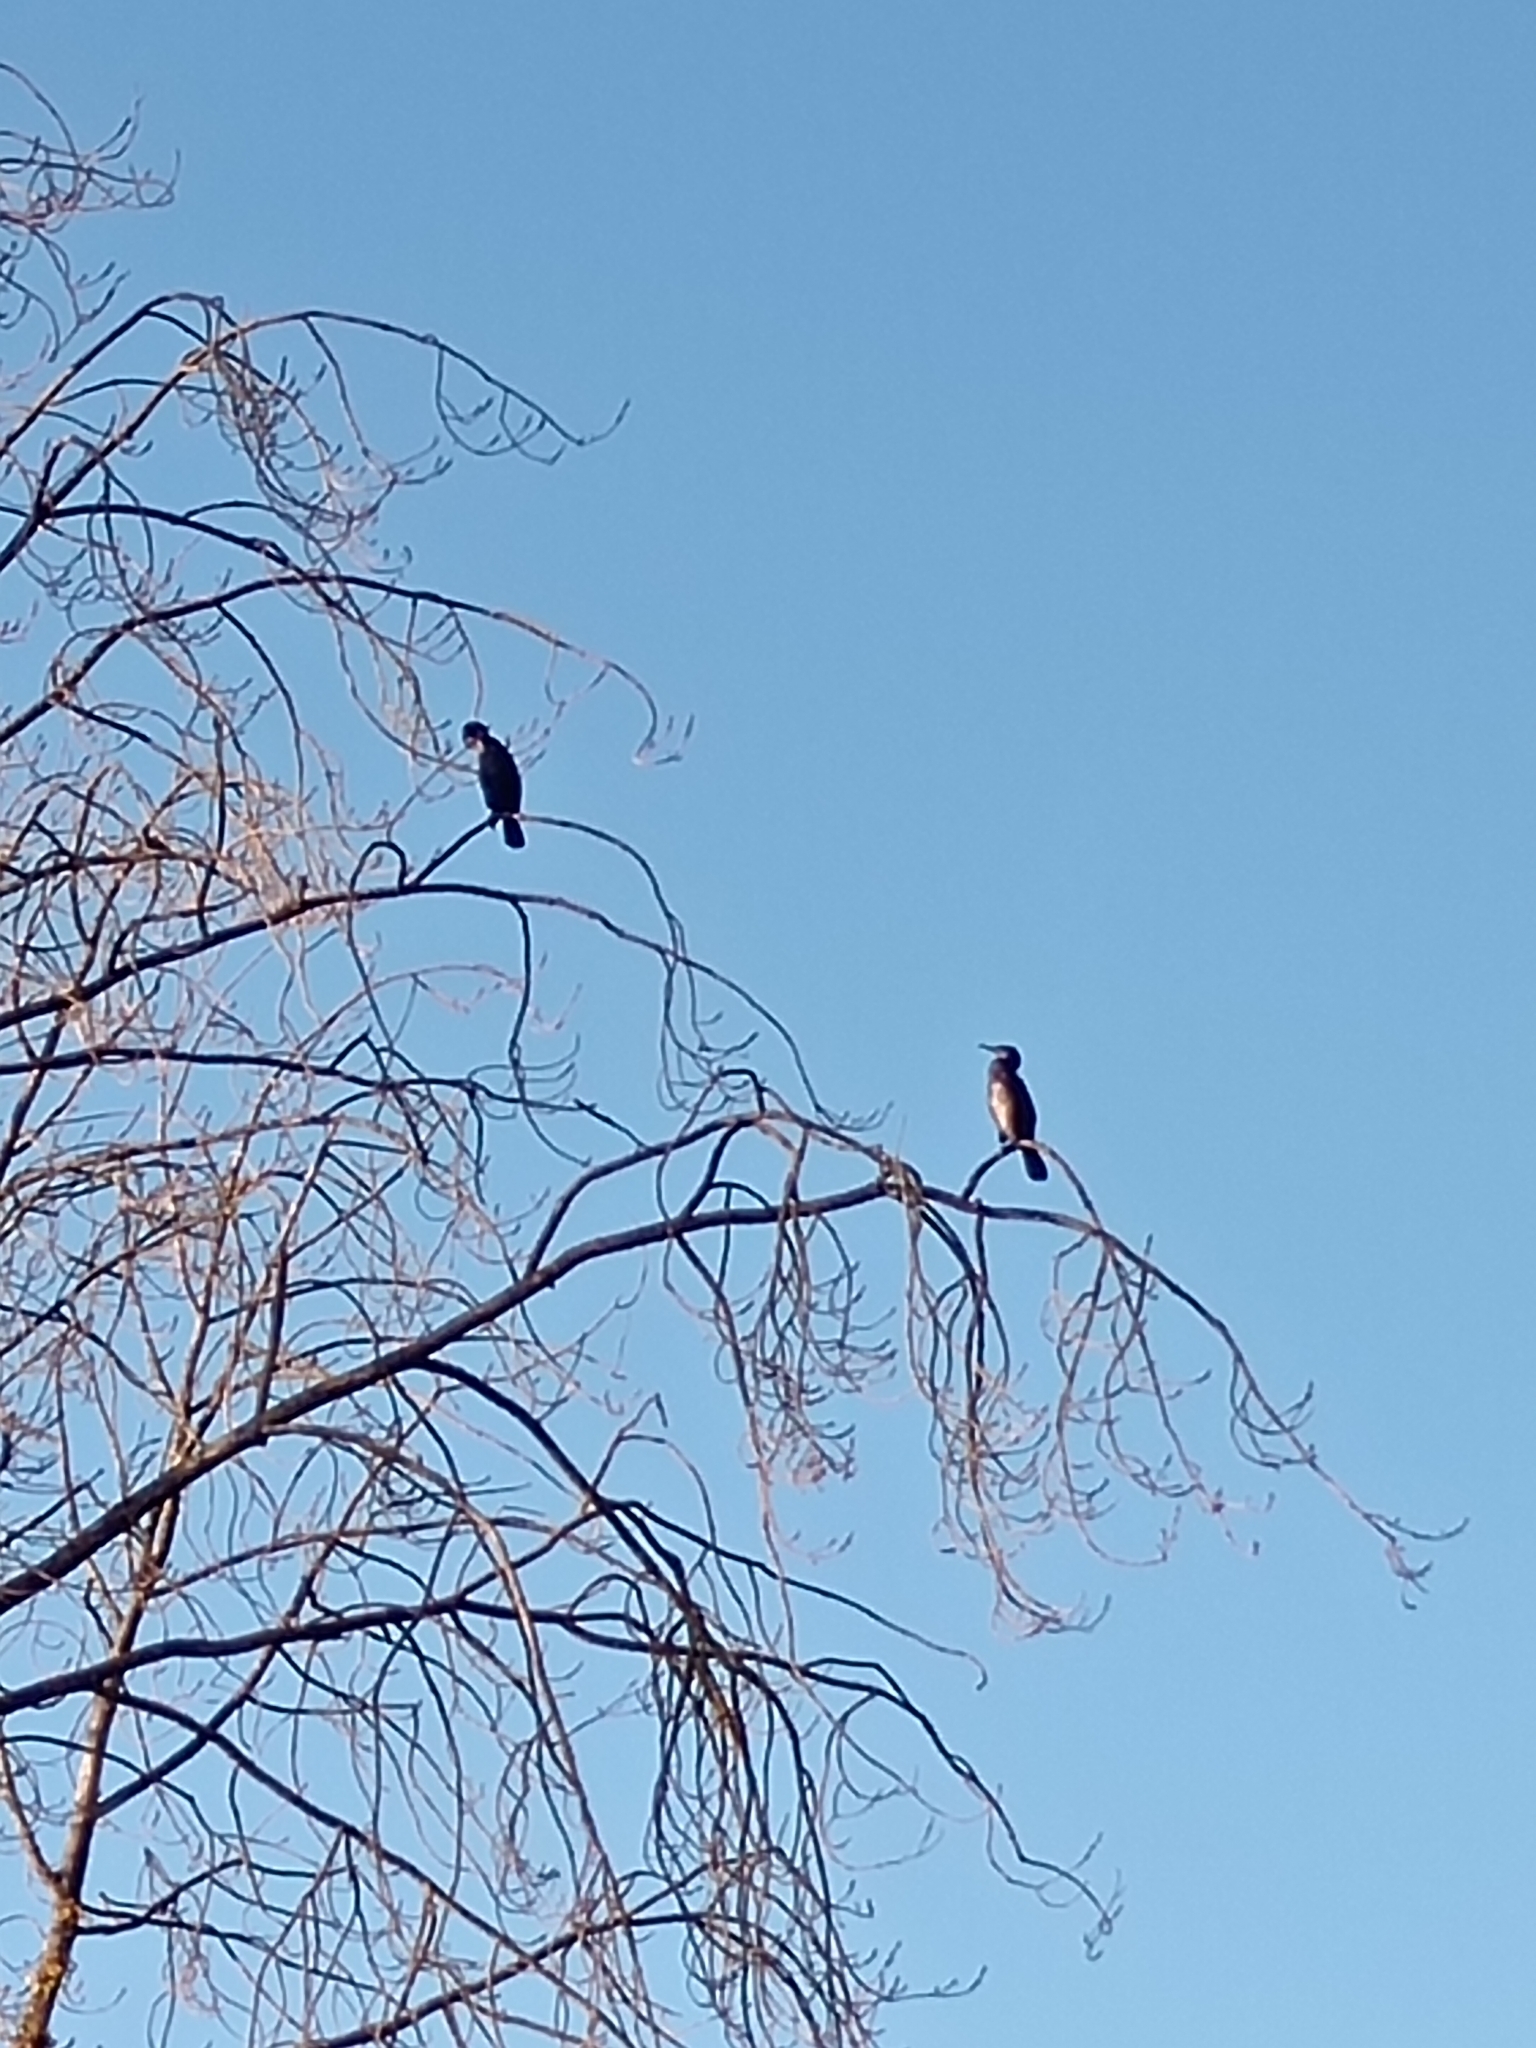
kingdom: Animalia
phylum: Chordata
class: Aves
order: Suliformes
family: Phalacrocoracidae
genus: Phalacrocorax
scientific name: Phalacrocorax carbo
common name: Great cormorant
